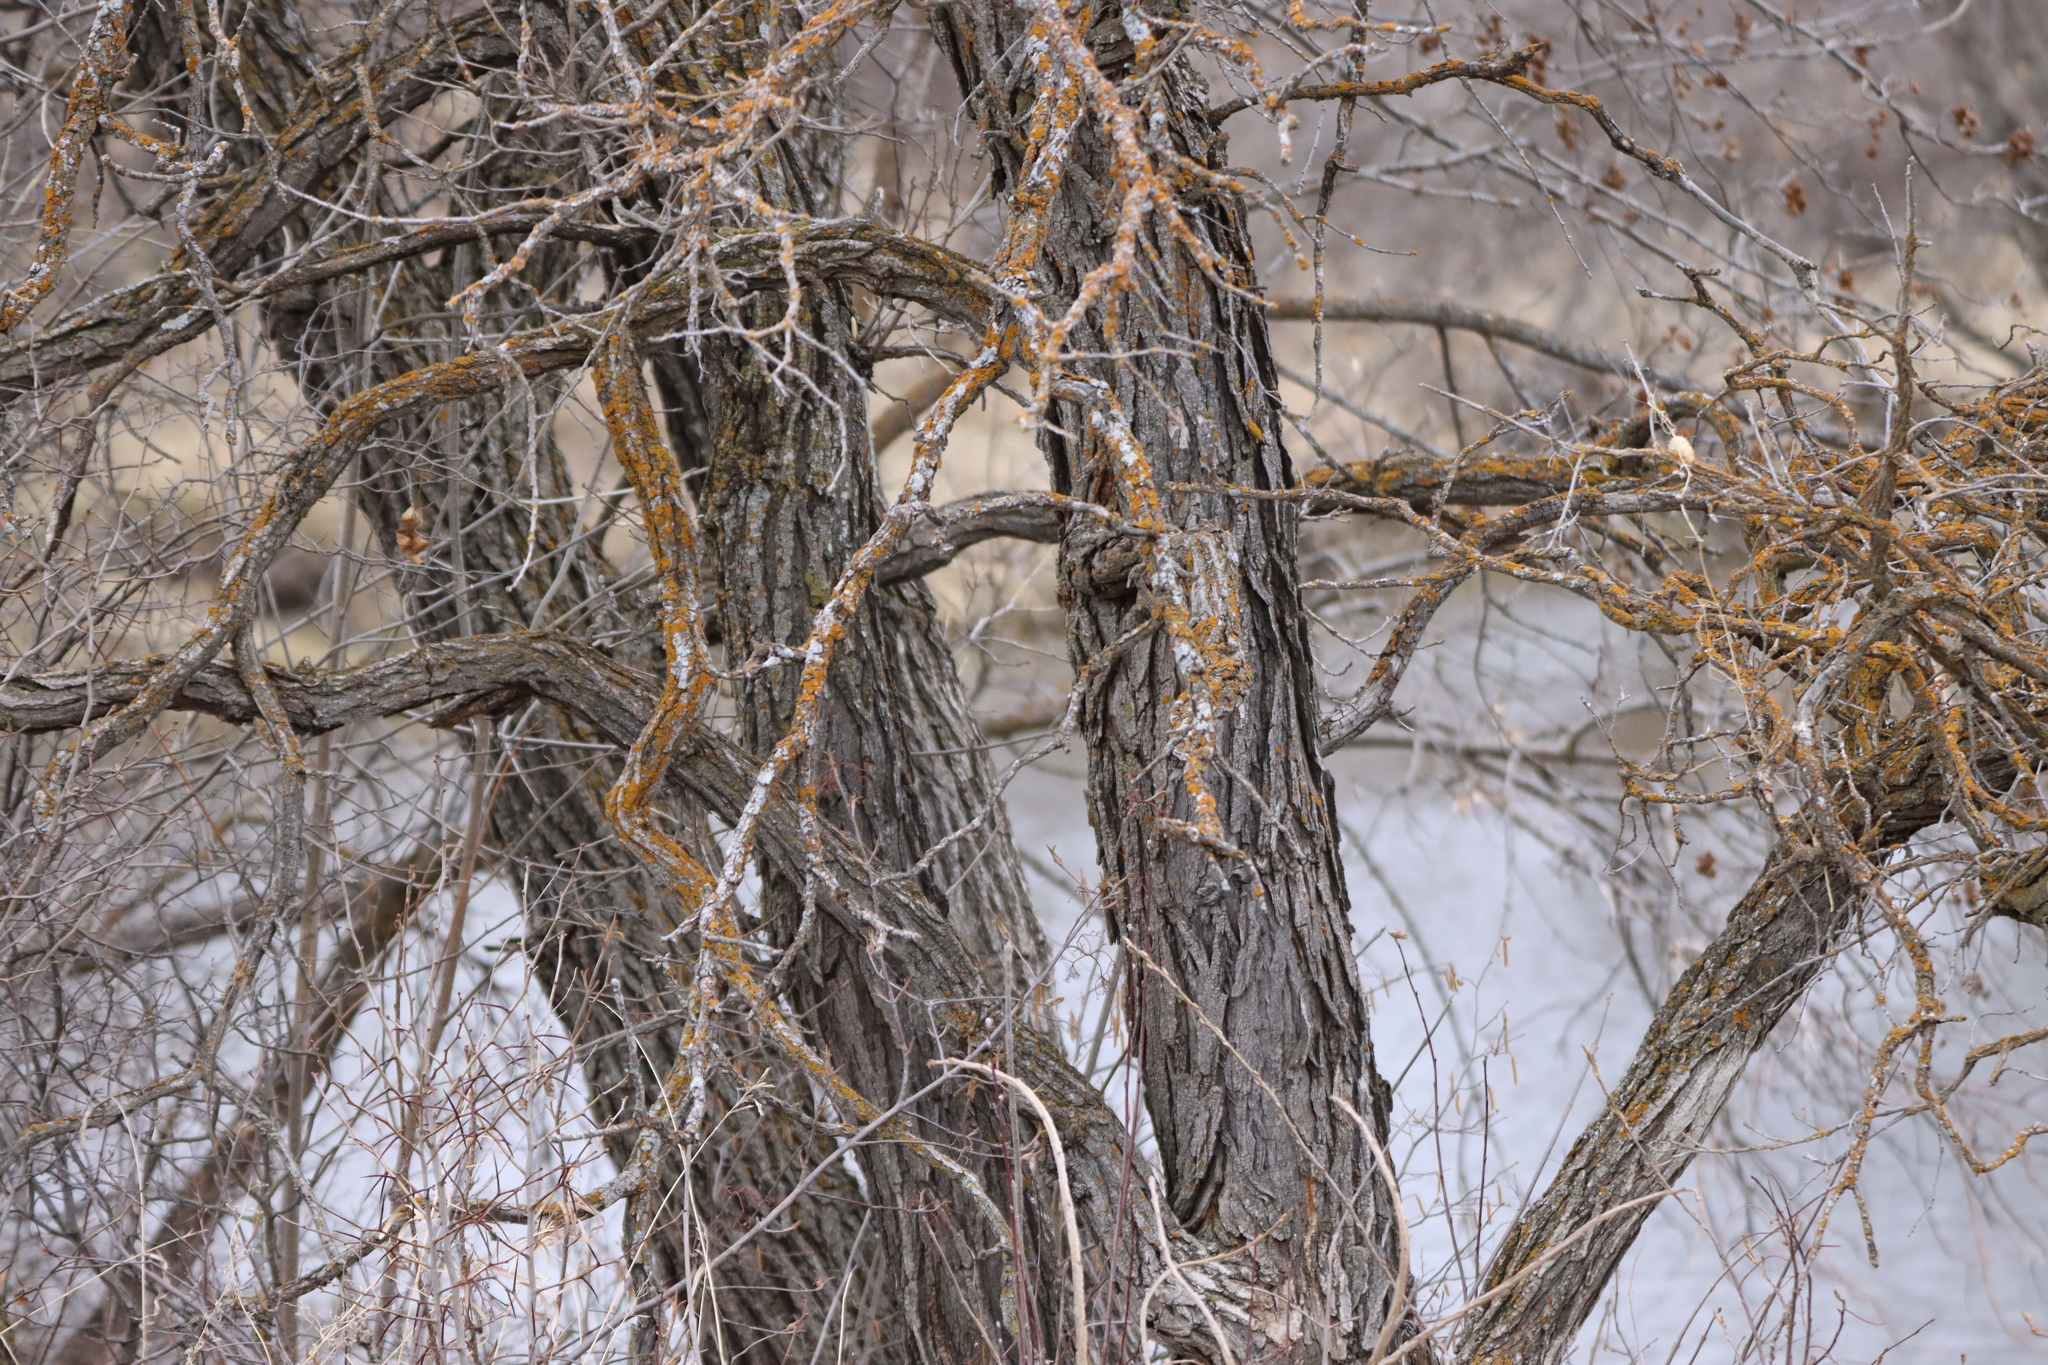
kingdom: Plantae
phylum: Tracheophyta
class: Magnoliopsida
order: Fagales
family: Fagaceae
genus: Quercus
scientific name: Quercus macrocarpa
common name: Bur oak
